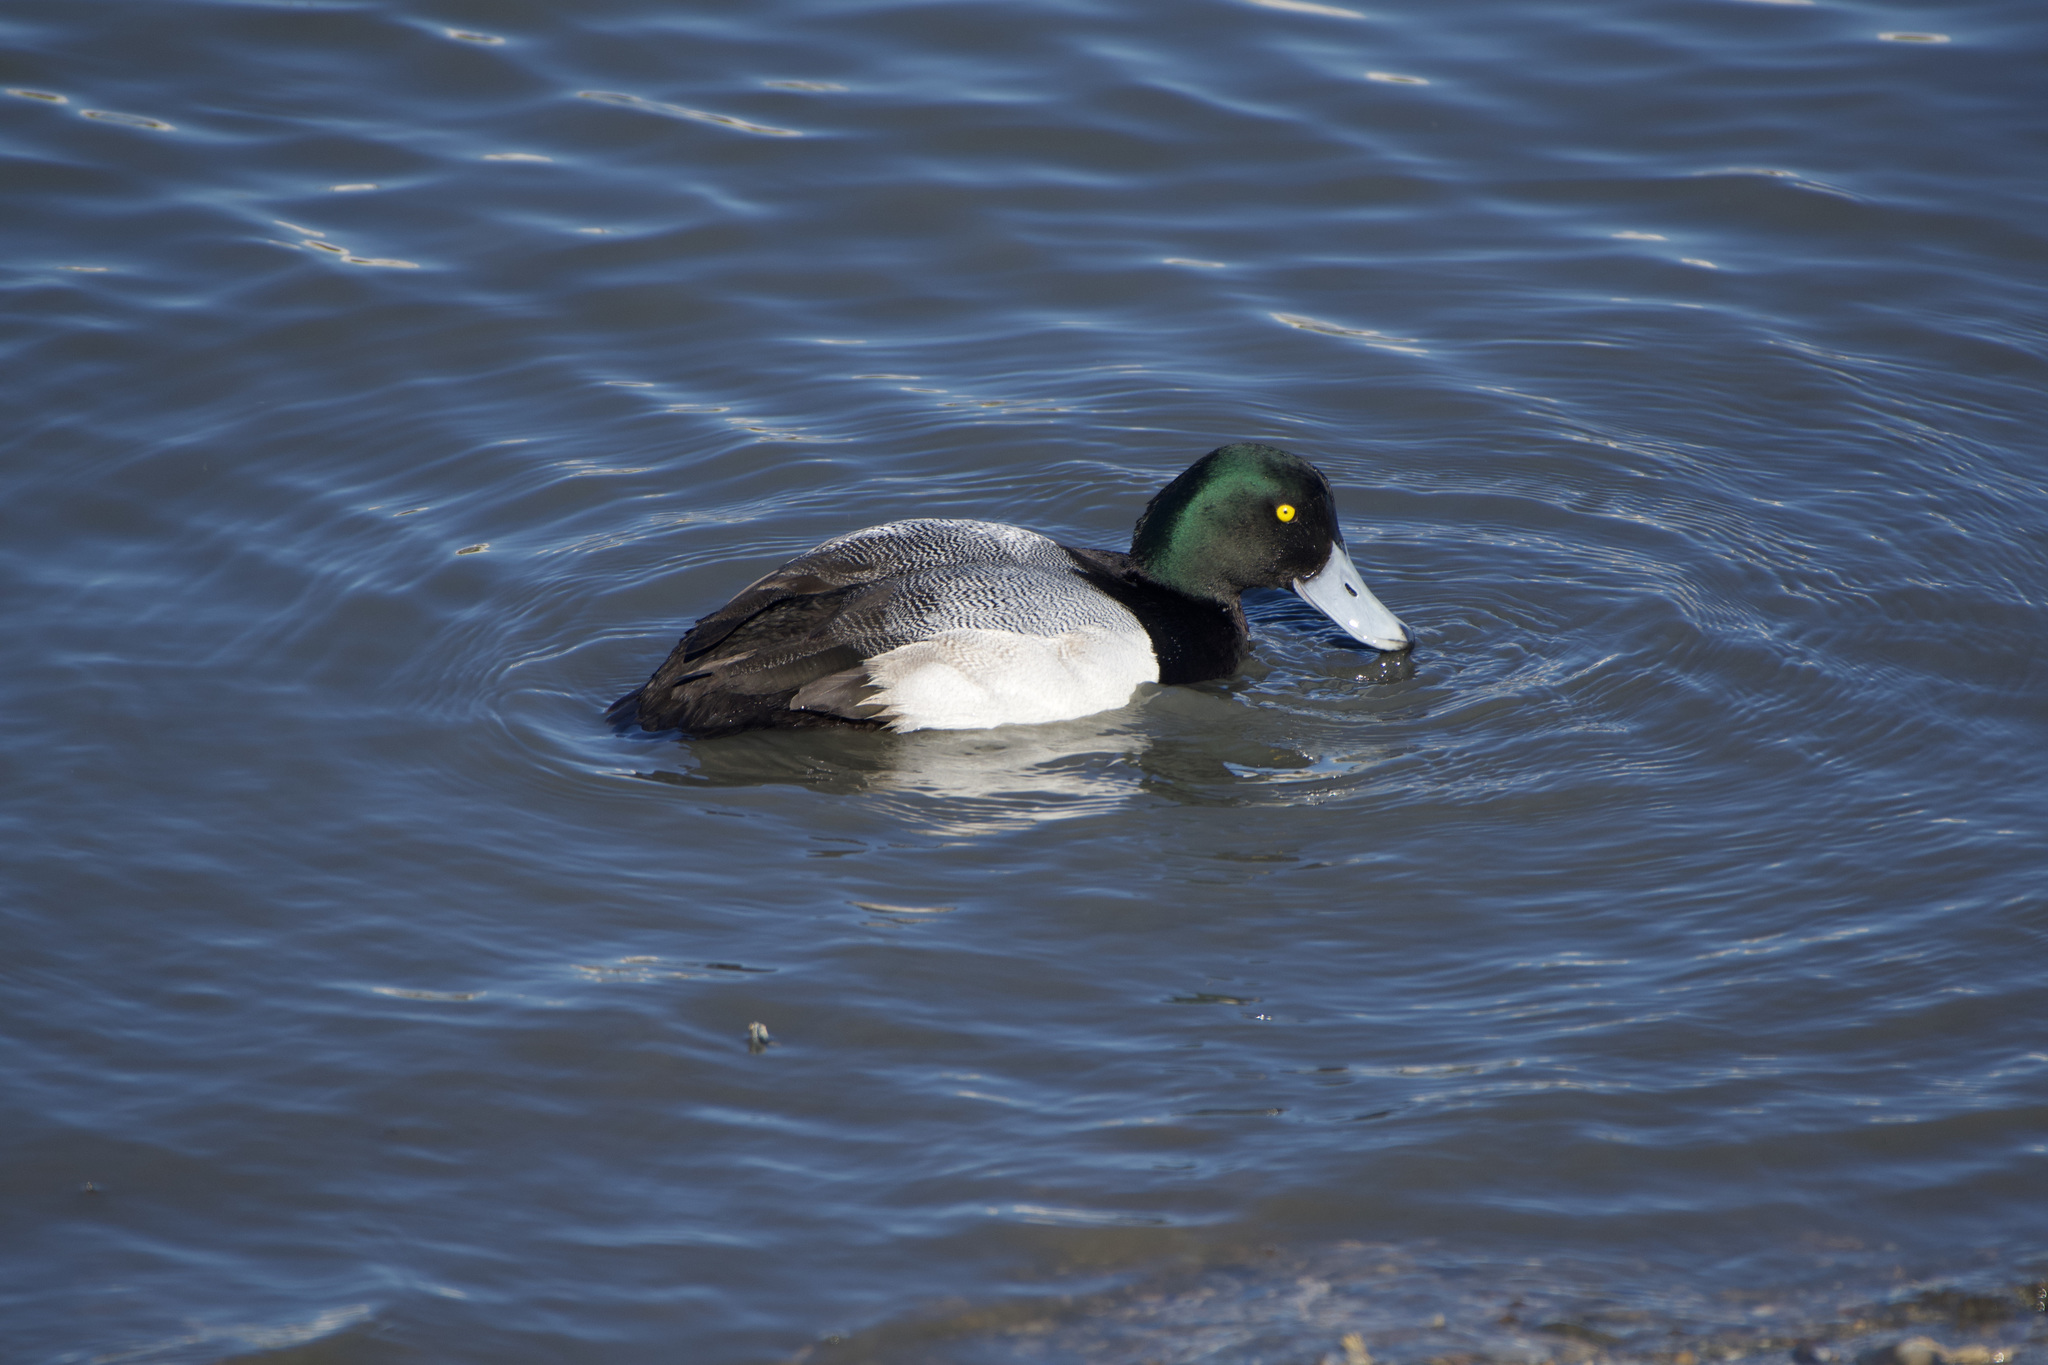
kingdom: Animalia
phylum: Chordata
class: Aves
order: Anseriformes
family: Anatidae
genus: Aythya
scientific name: Aythya marila
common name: Greater scaup
